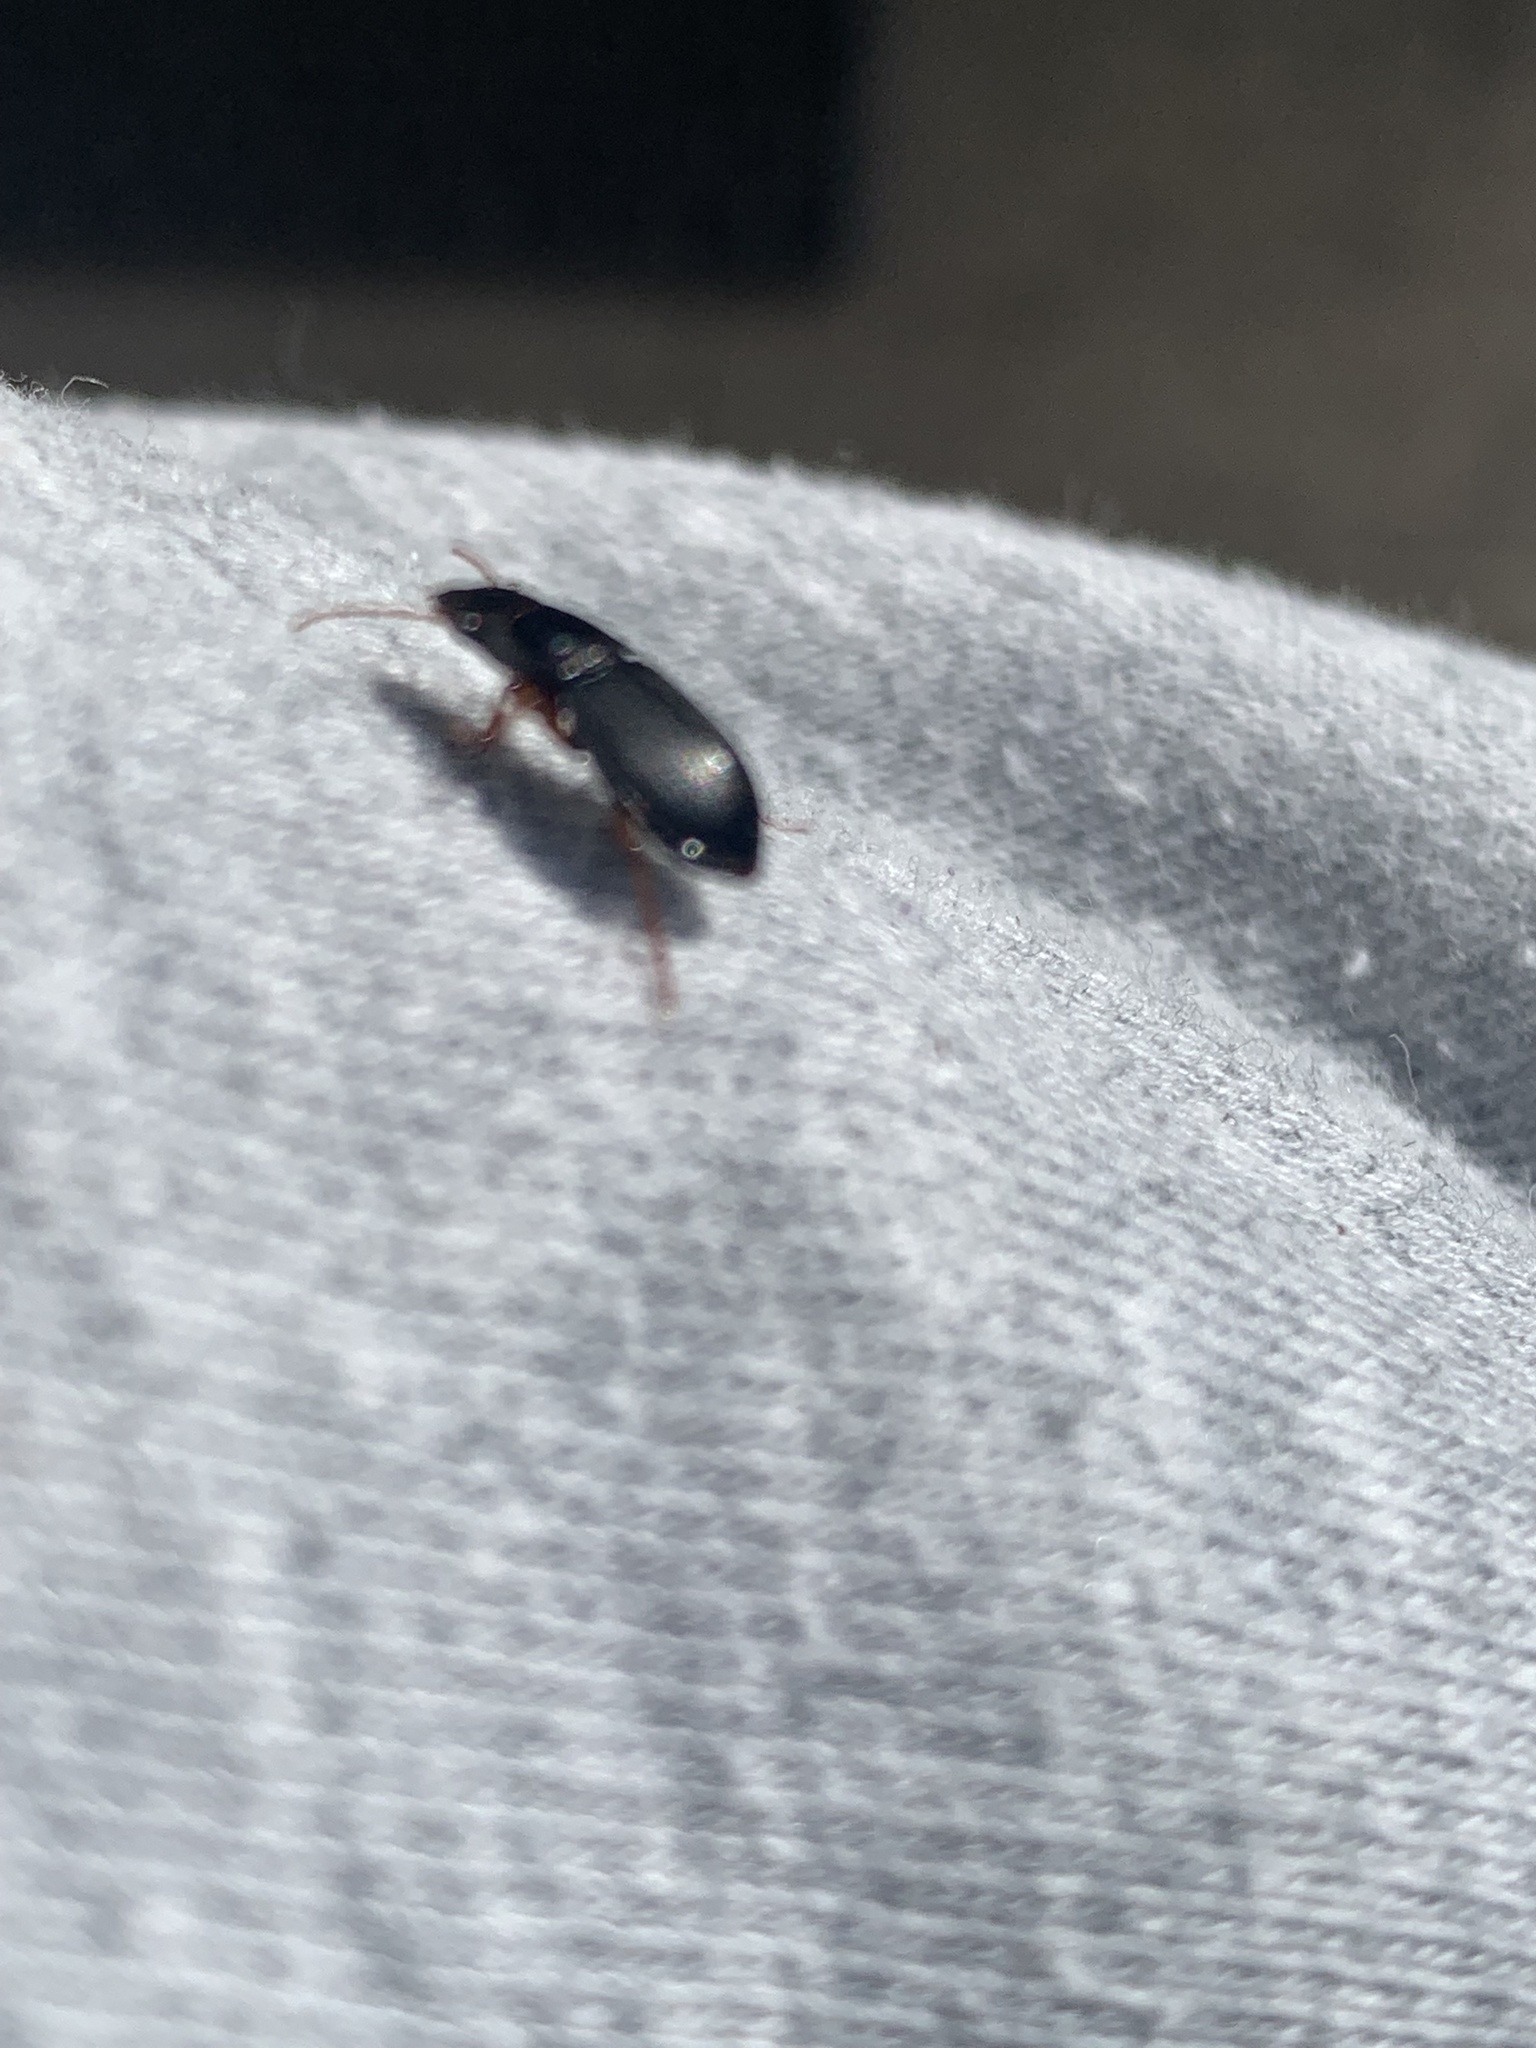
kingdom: Animalia
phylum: Arthropoda
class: Insecta
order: Coleoptera
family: Carabidae
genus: Harpalus
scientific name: Harpalus rubripes
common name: Red-legged harp ground beetle
